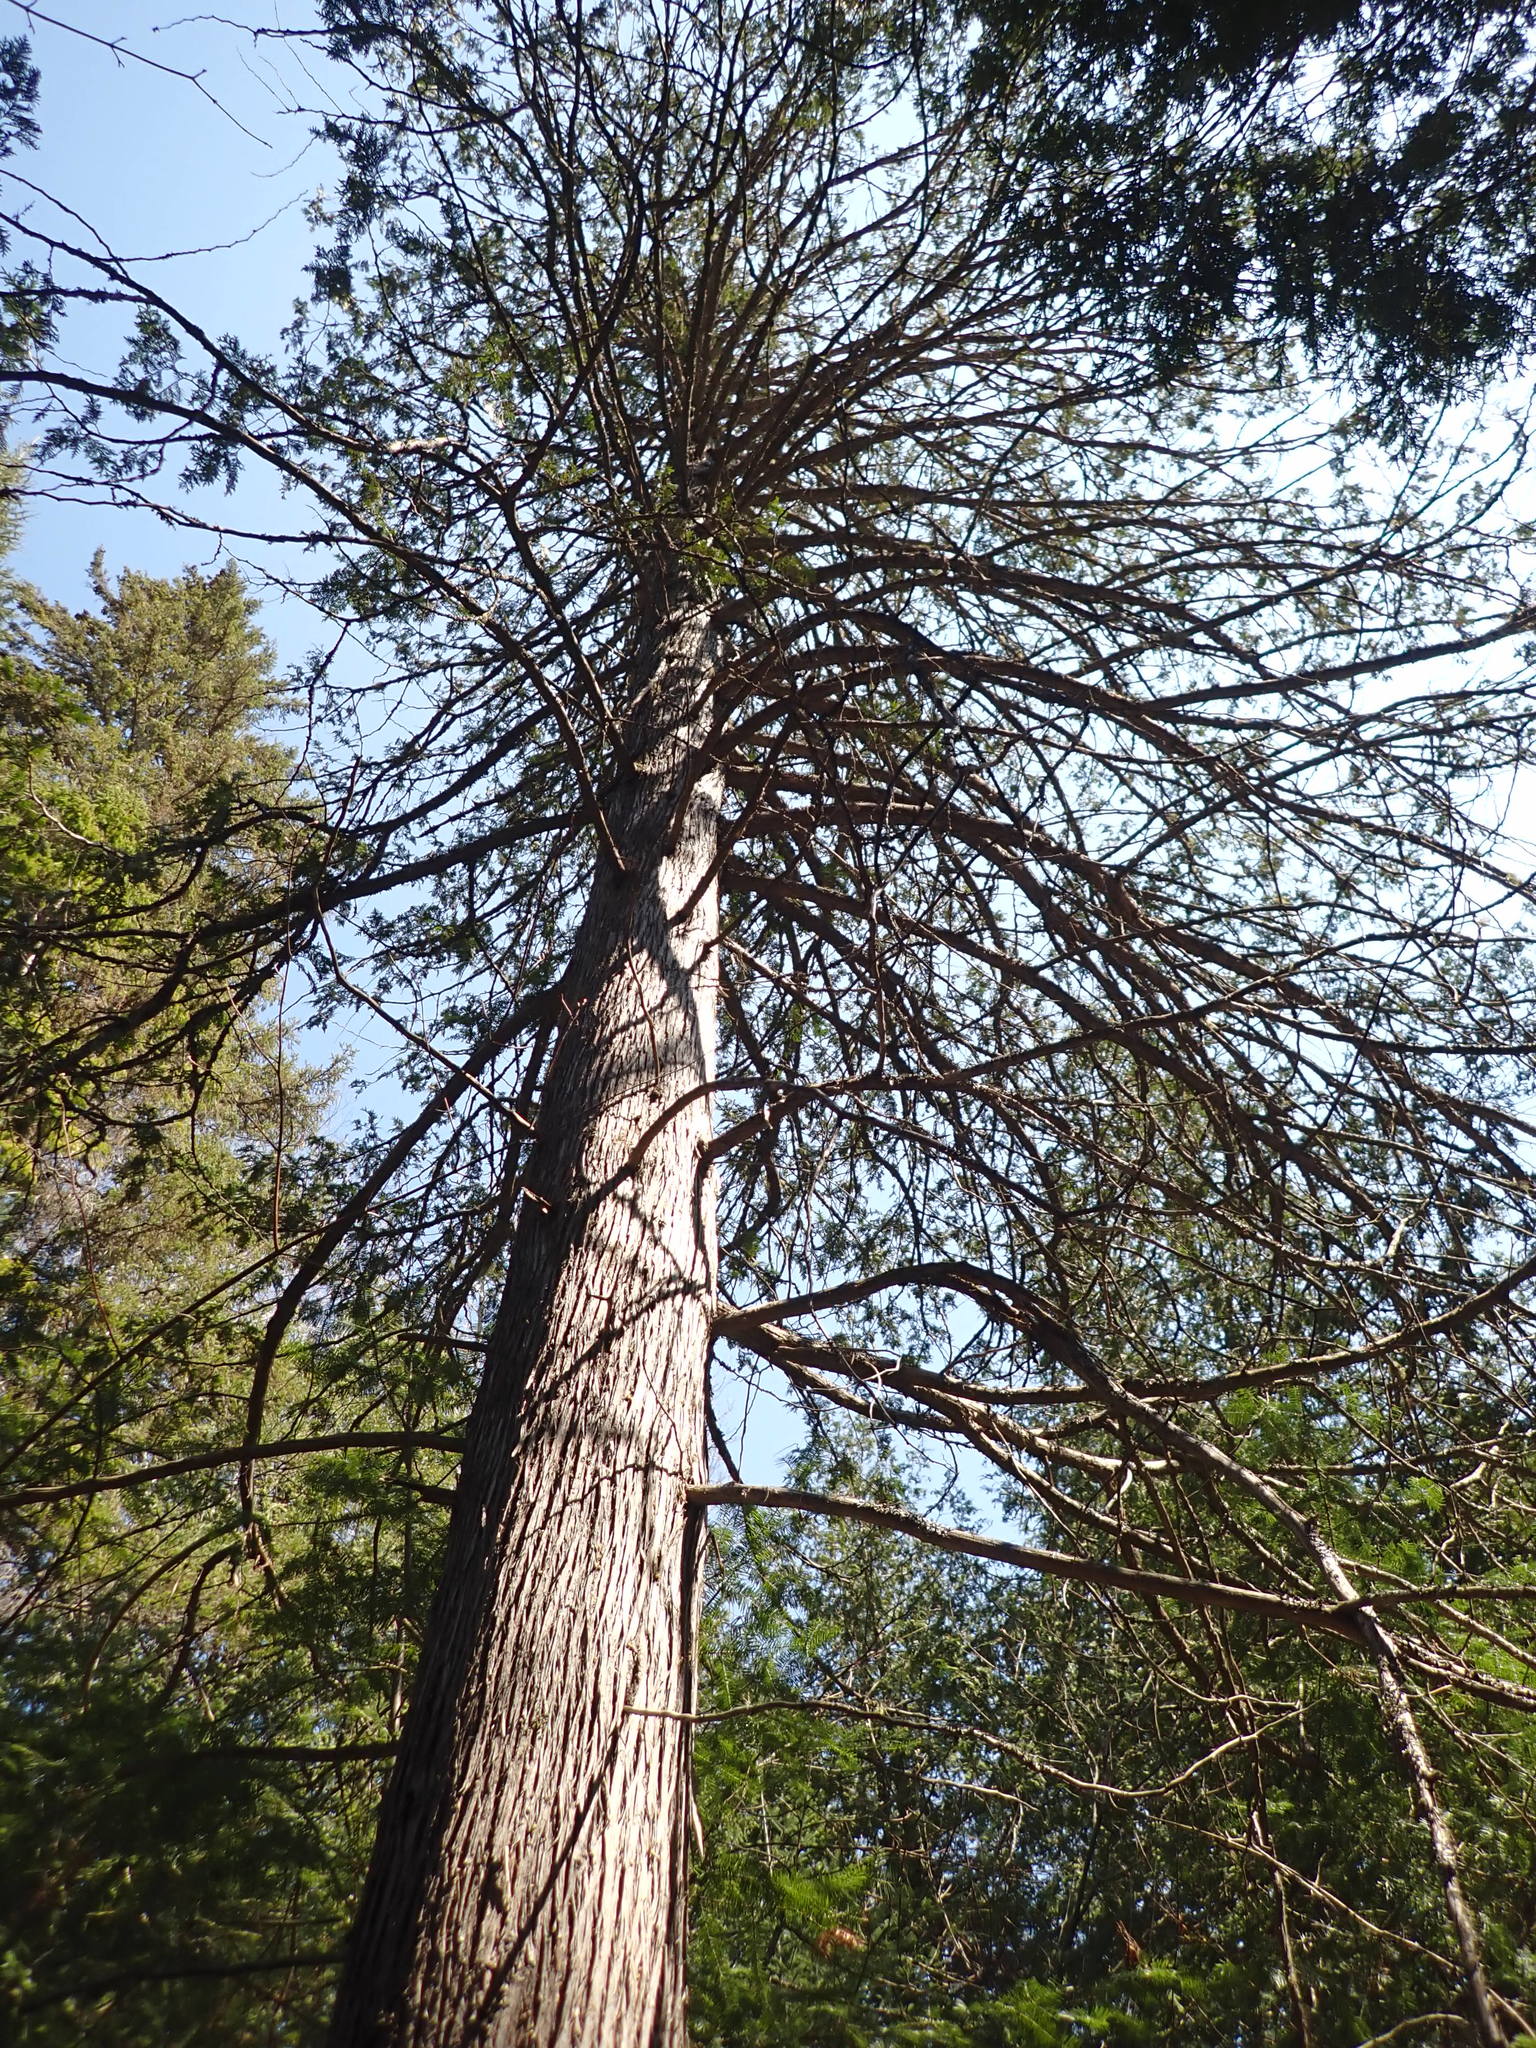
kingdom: Plantae
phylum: Tracheophyta
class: Pinopsida
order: Pinales
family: Cupressaceae
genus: Thuja
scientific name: Thuja occidentalis
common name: Northern white-cedar
